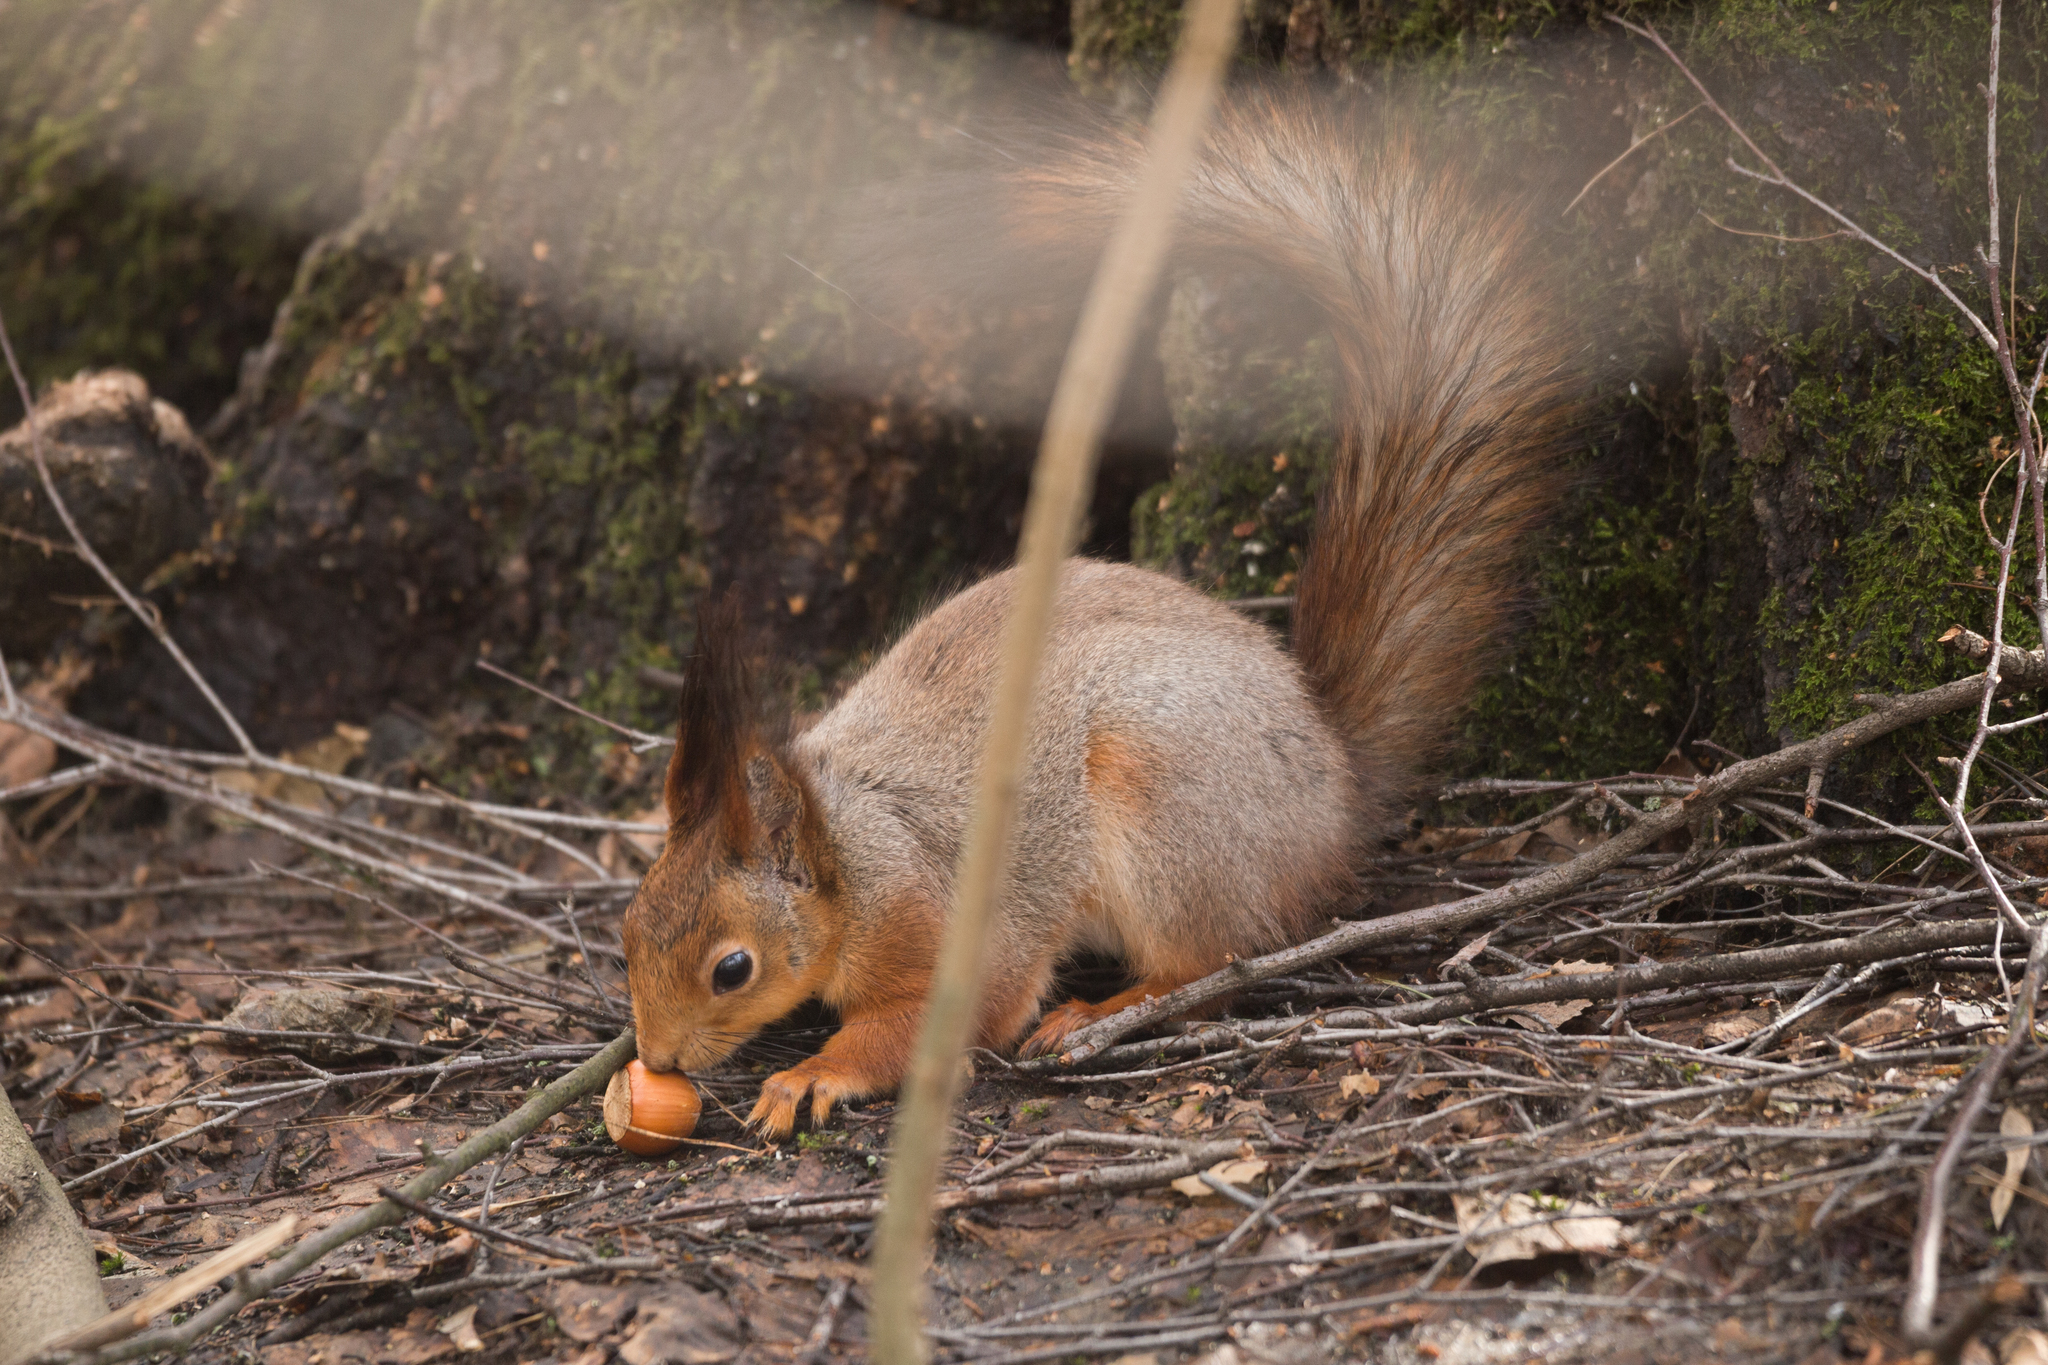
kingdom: Animalia
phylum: Chordata
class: Mammalia
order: Rodentia
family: Sciuridae
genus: Sciurus
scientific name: Sciurus vulgaris
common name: Eurasian red squirrel
